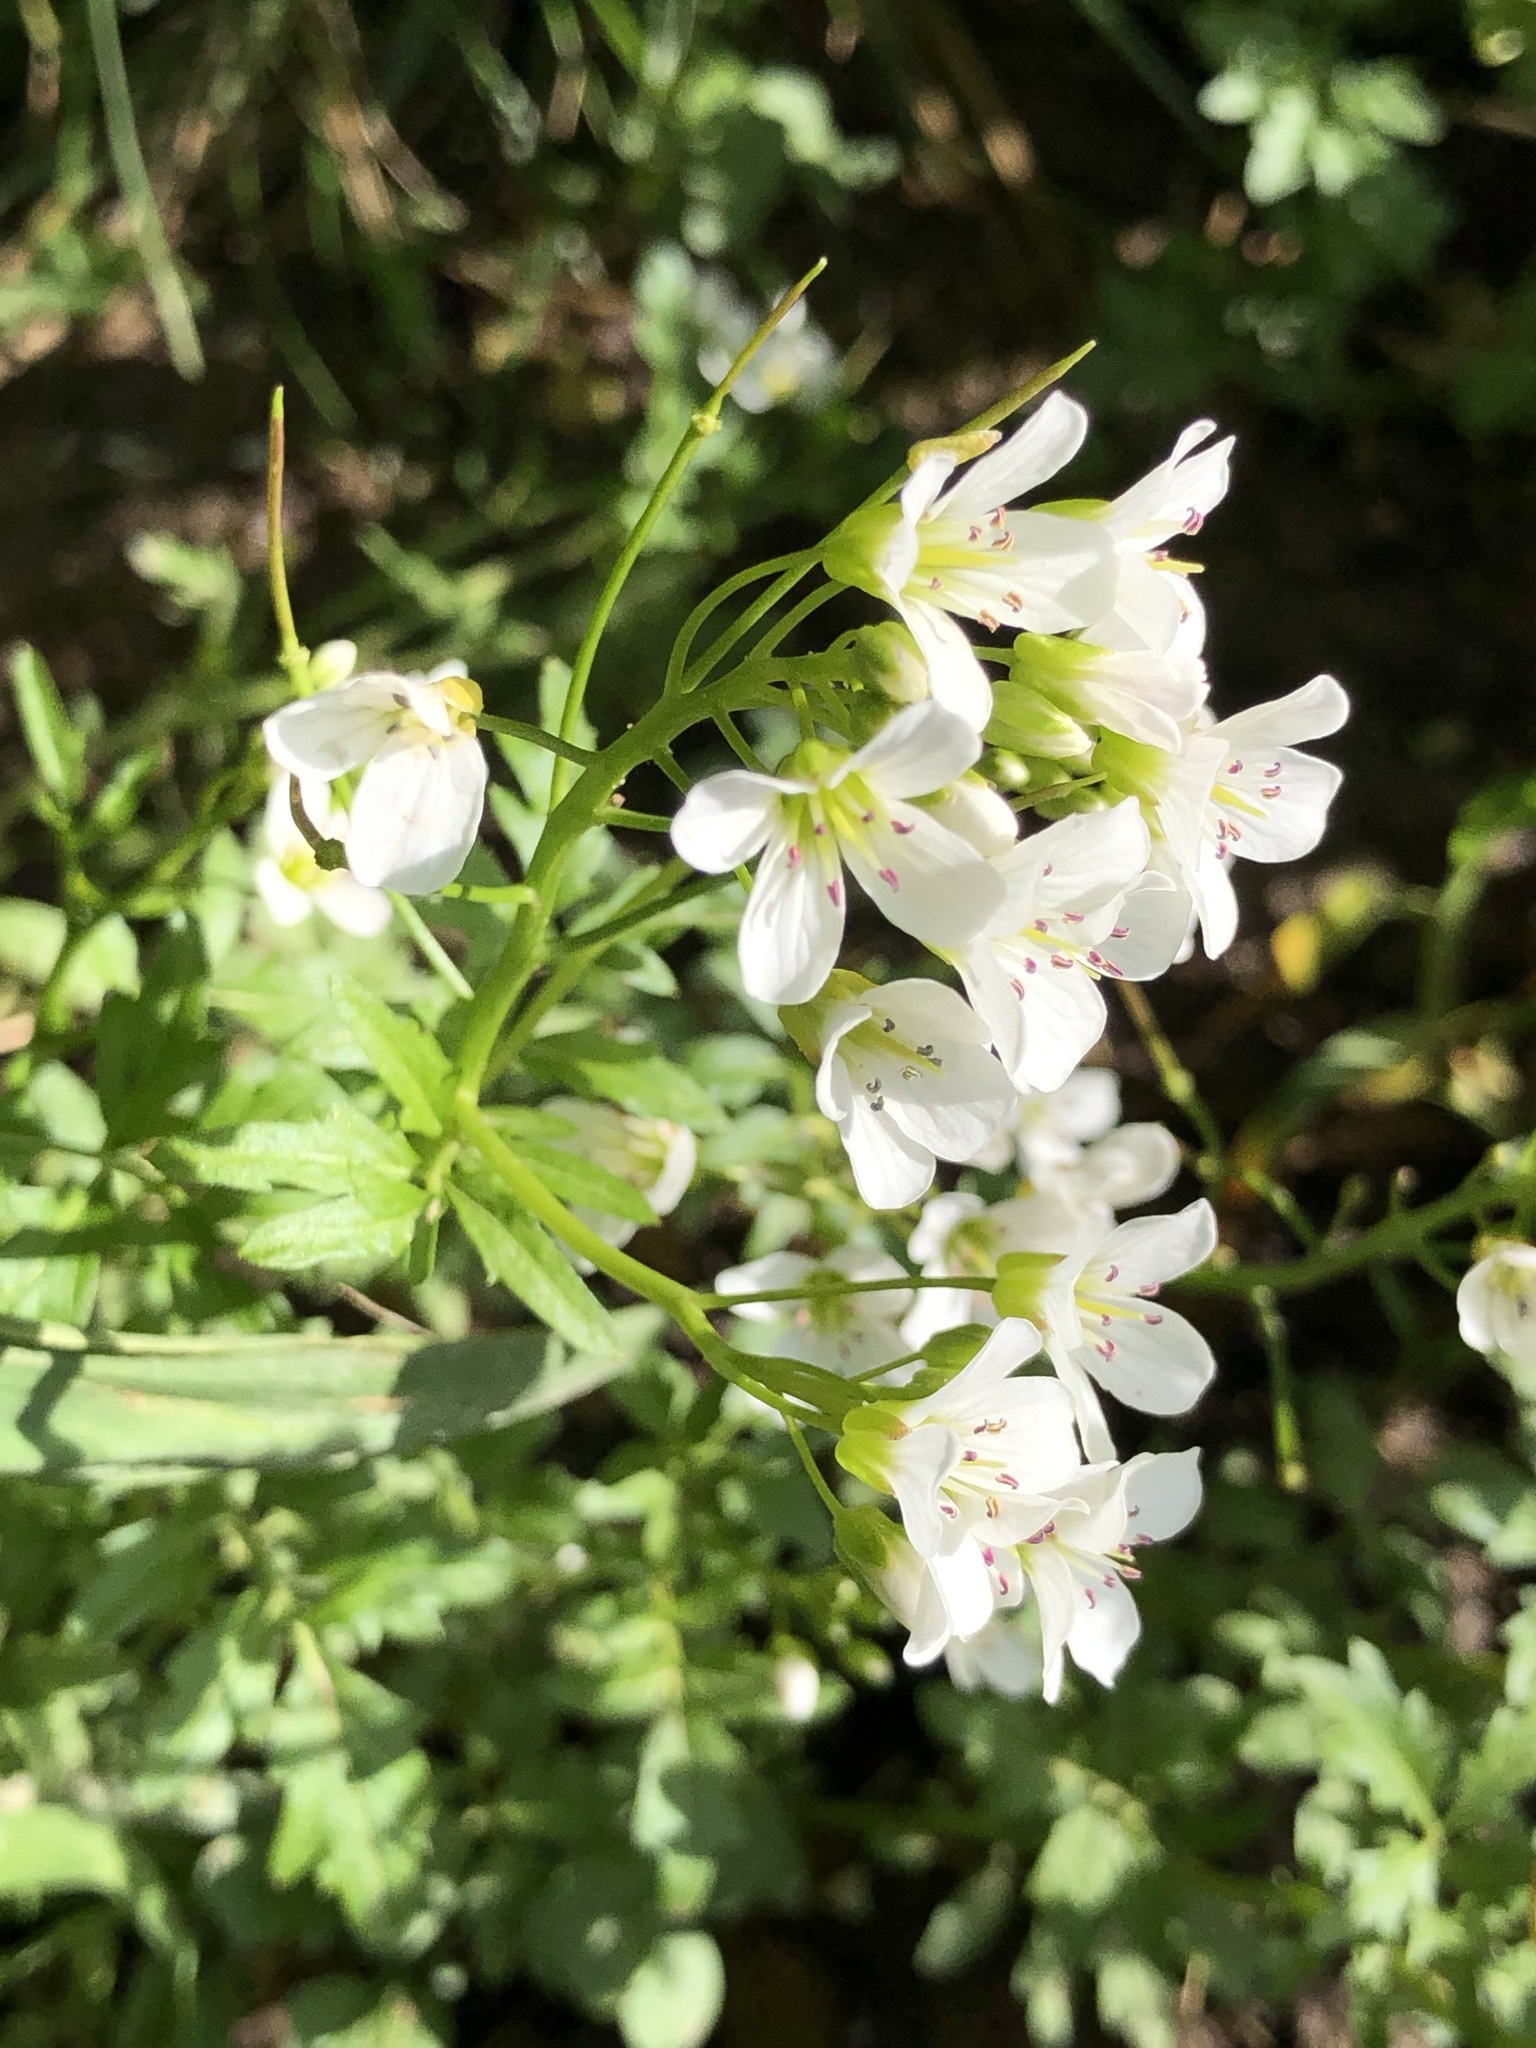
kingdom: Plantae
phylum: Tracheophyta
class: Magnoliopsida
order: Brassicales
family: Brassicaceae
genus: Cardamine
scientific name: Cardamine amara
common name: Large bitter-cress
